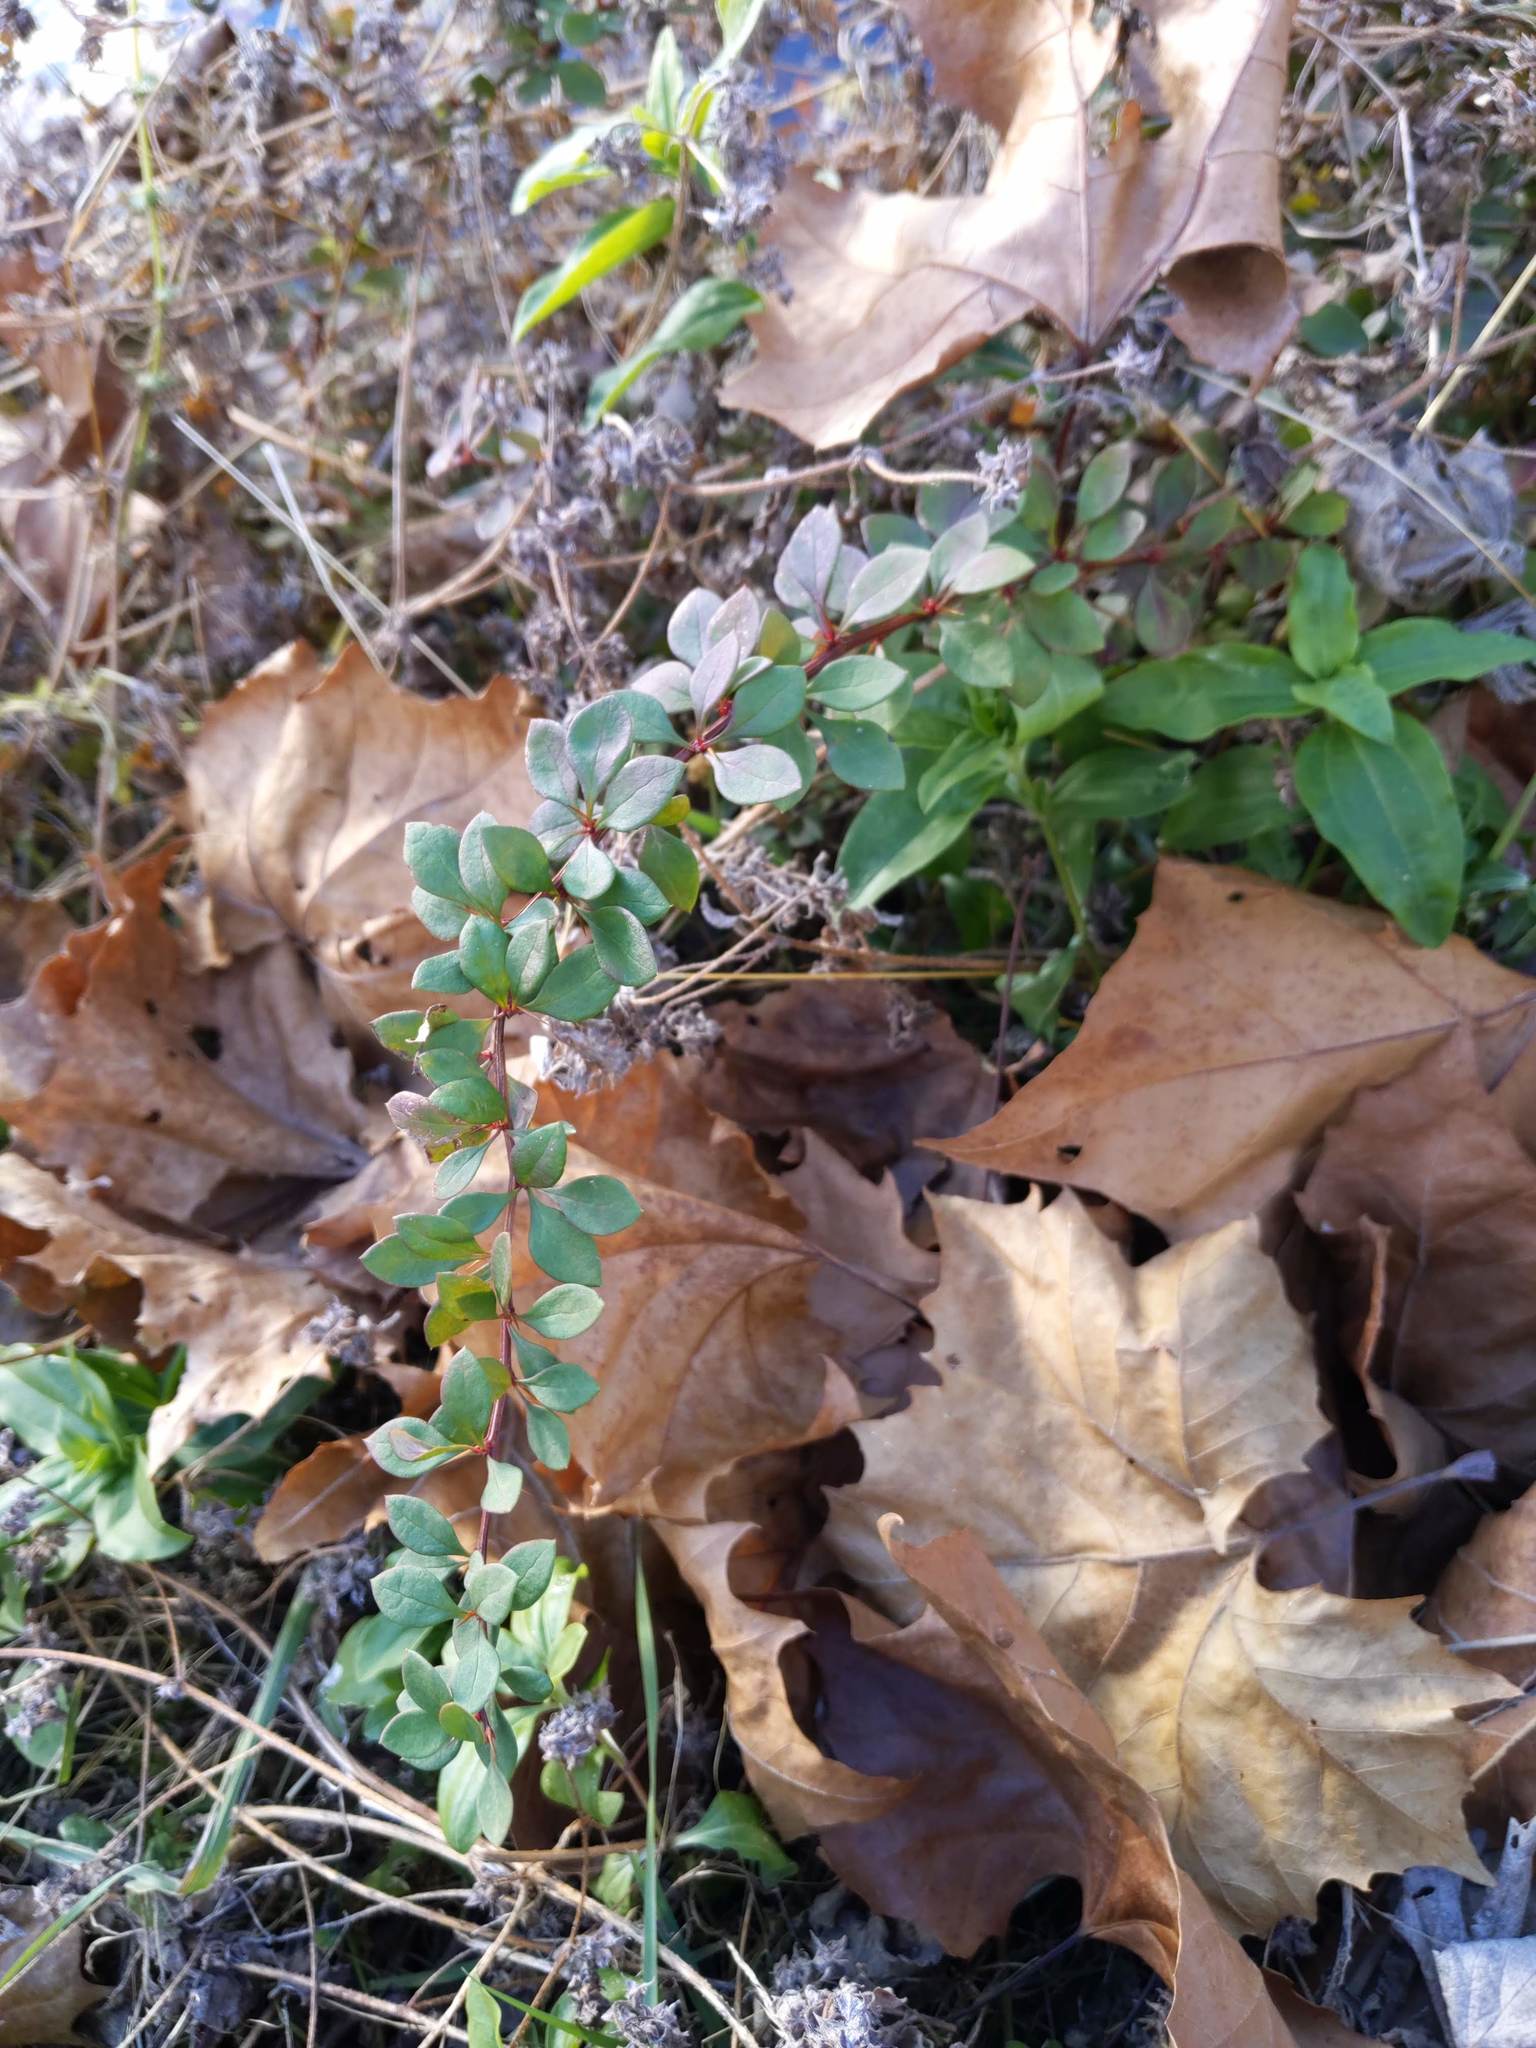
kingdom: Plantae
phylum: Tracheophyta
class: Magnoliopsida
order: Ranunculales
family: Berberidaceae
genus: Berberis
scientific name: Berberis ottawensis
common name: Ottawa barberry
